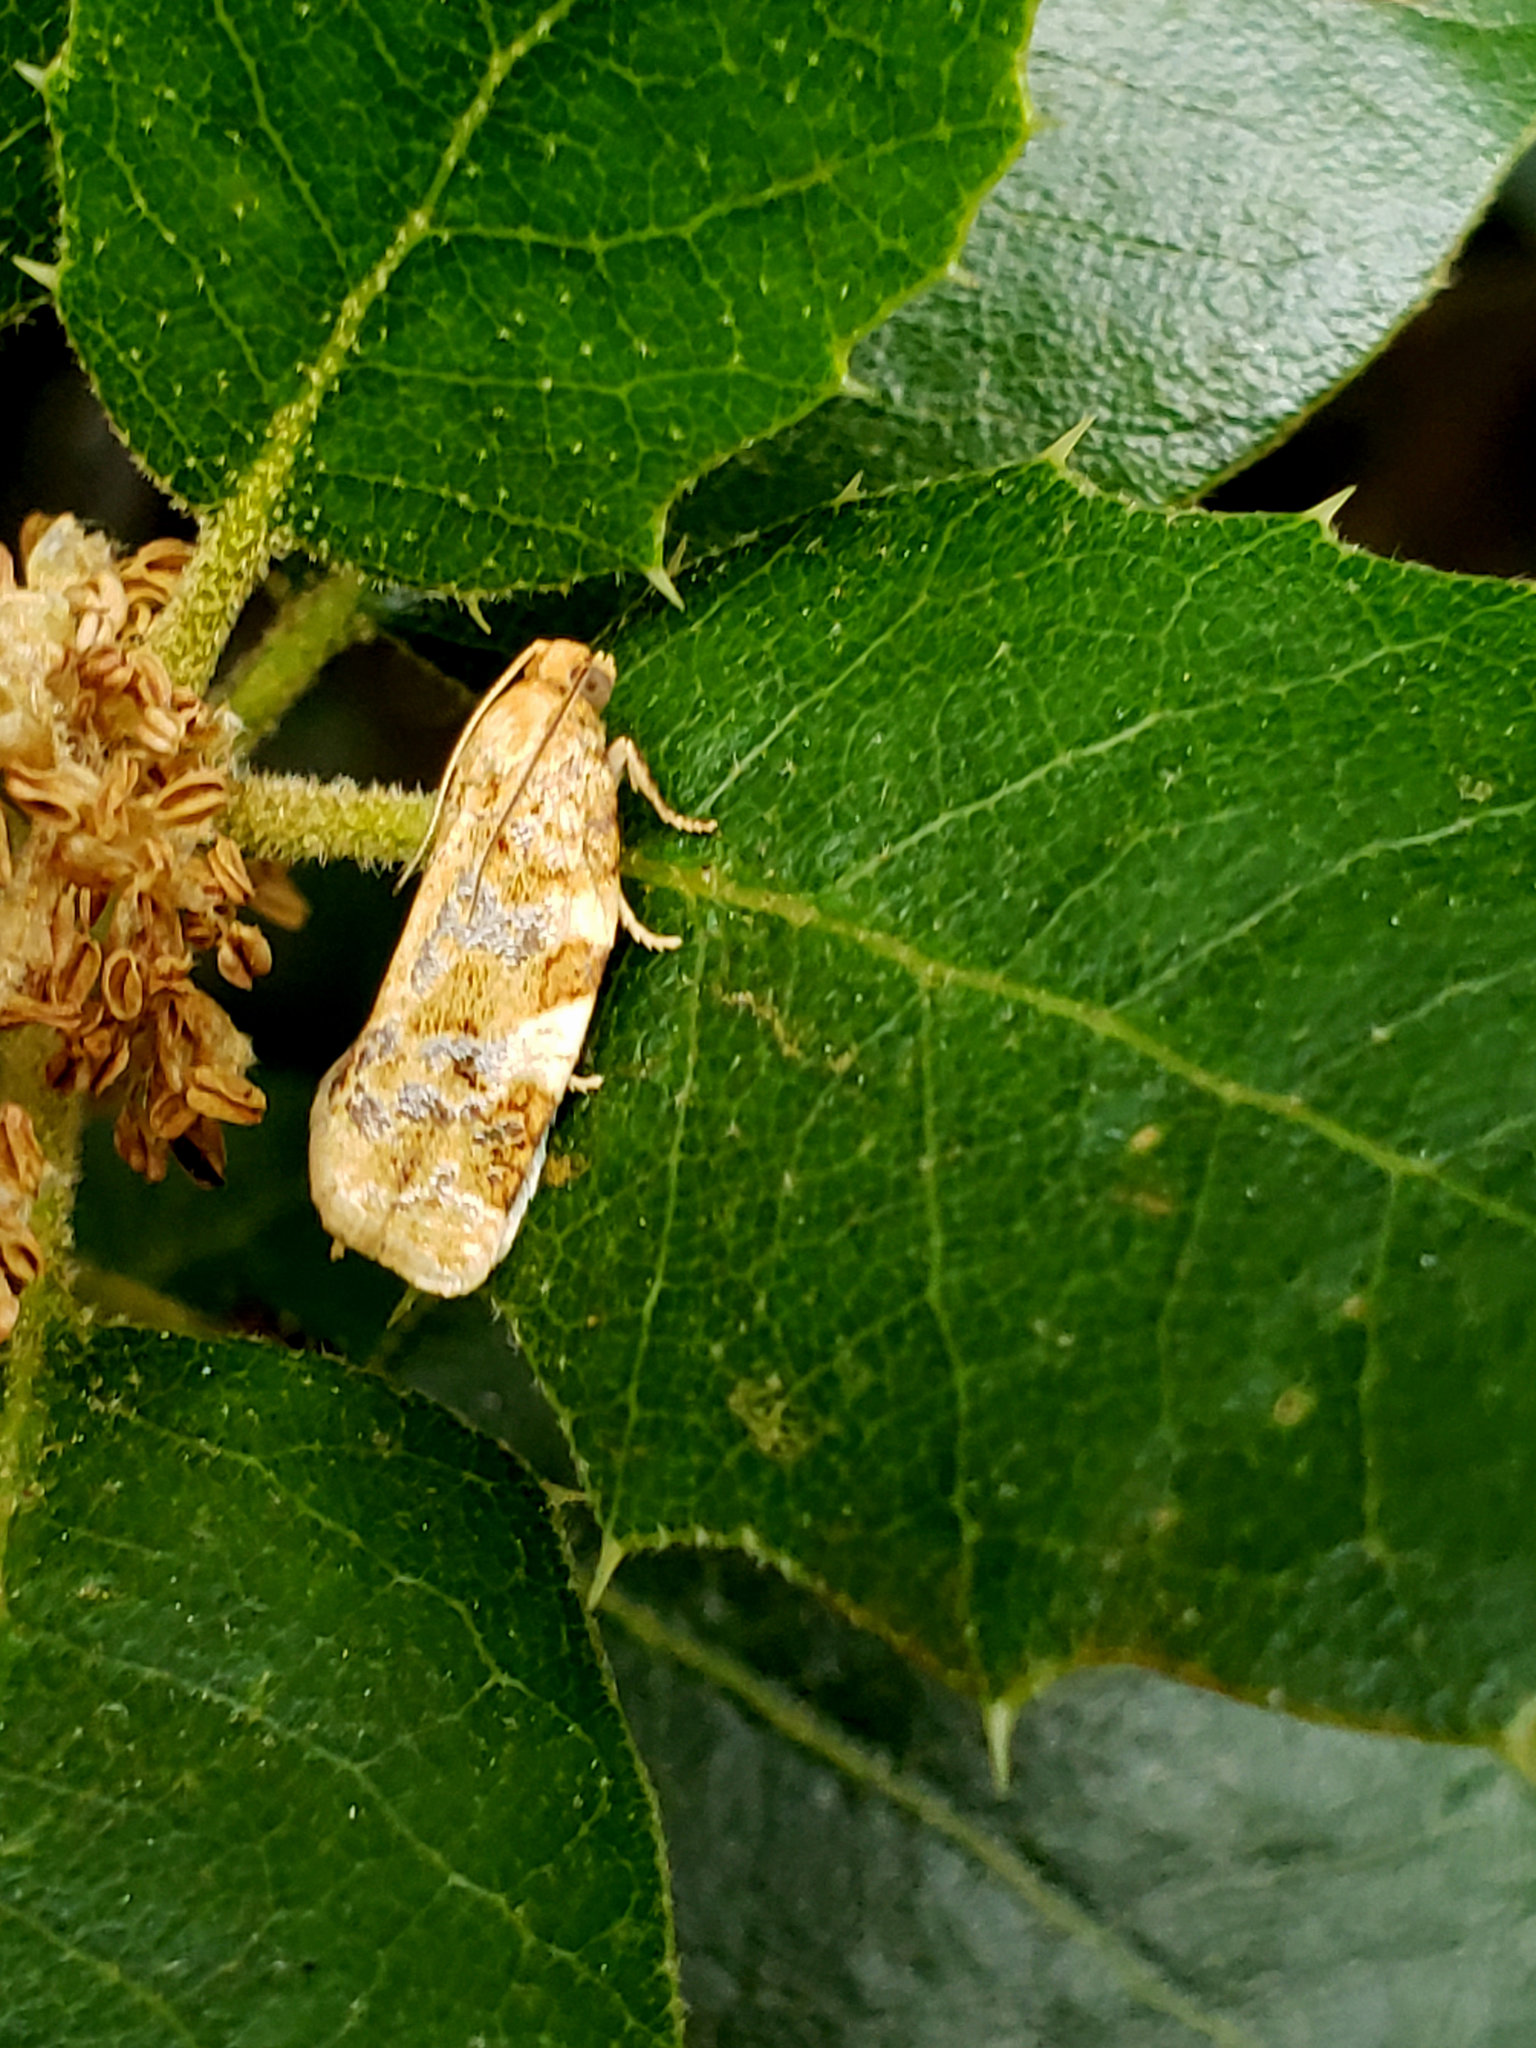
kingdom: Animalia
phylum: Arthropoda
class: Insecta
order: Lepidoptera
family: Tortricidae
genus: Archips
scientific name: Archips argyrospila
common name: Fruit-tree leafroller moth
